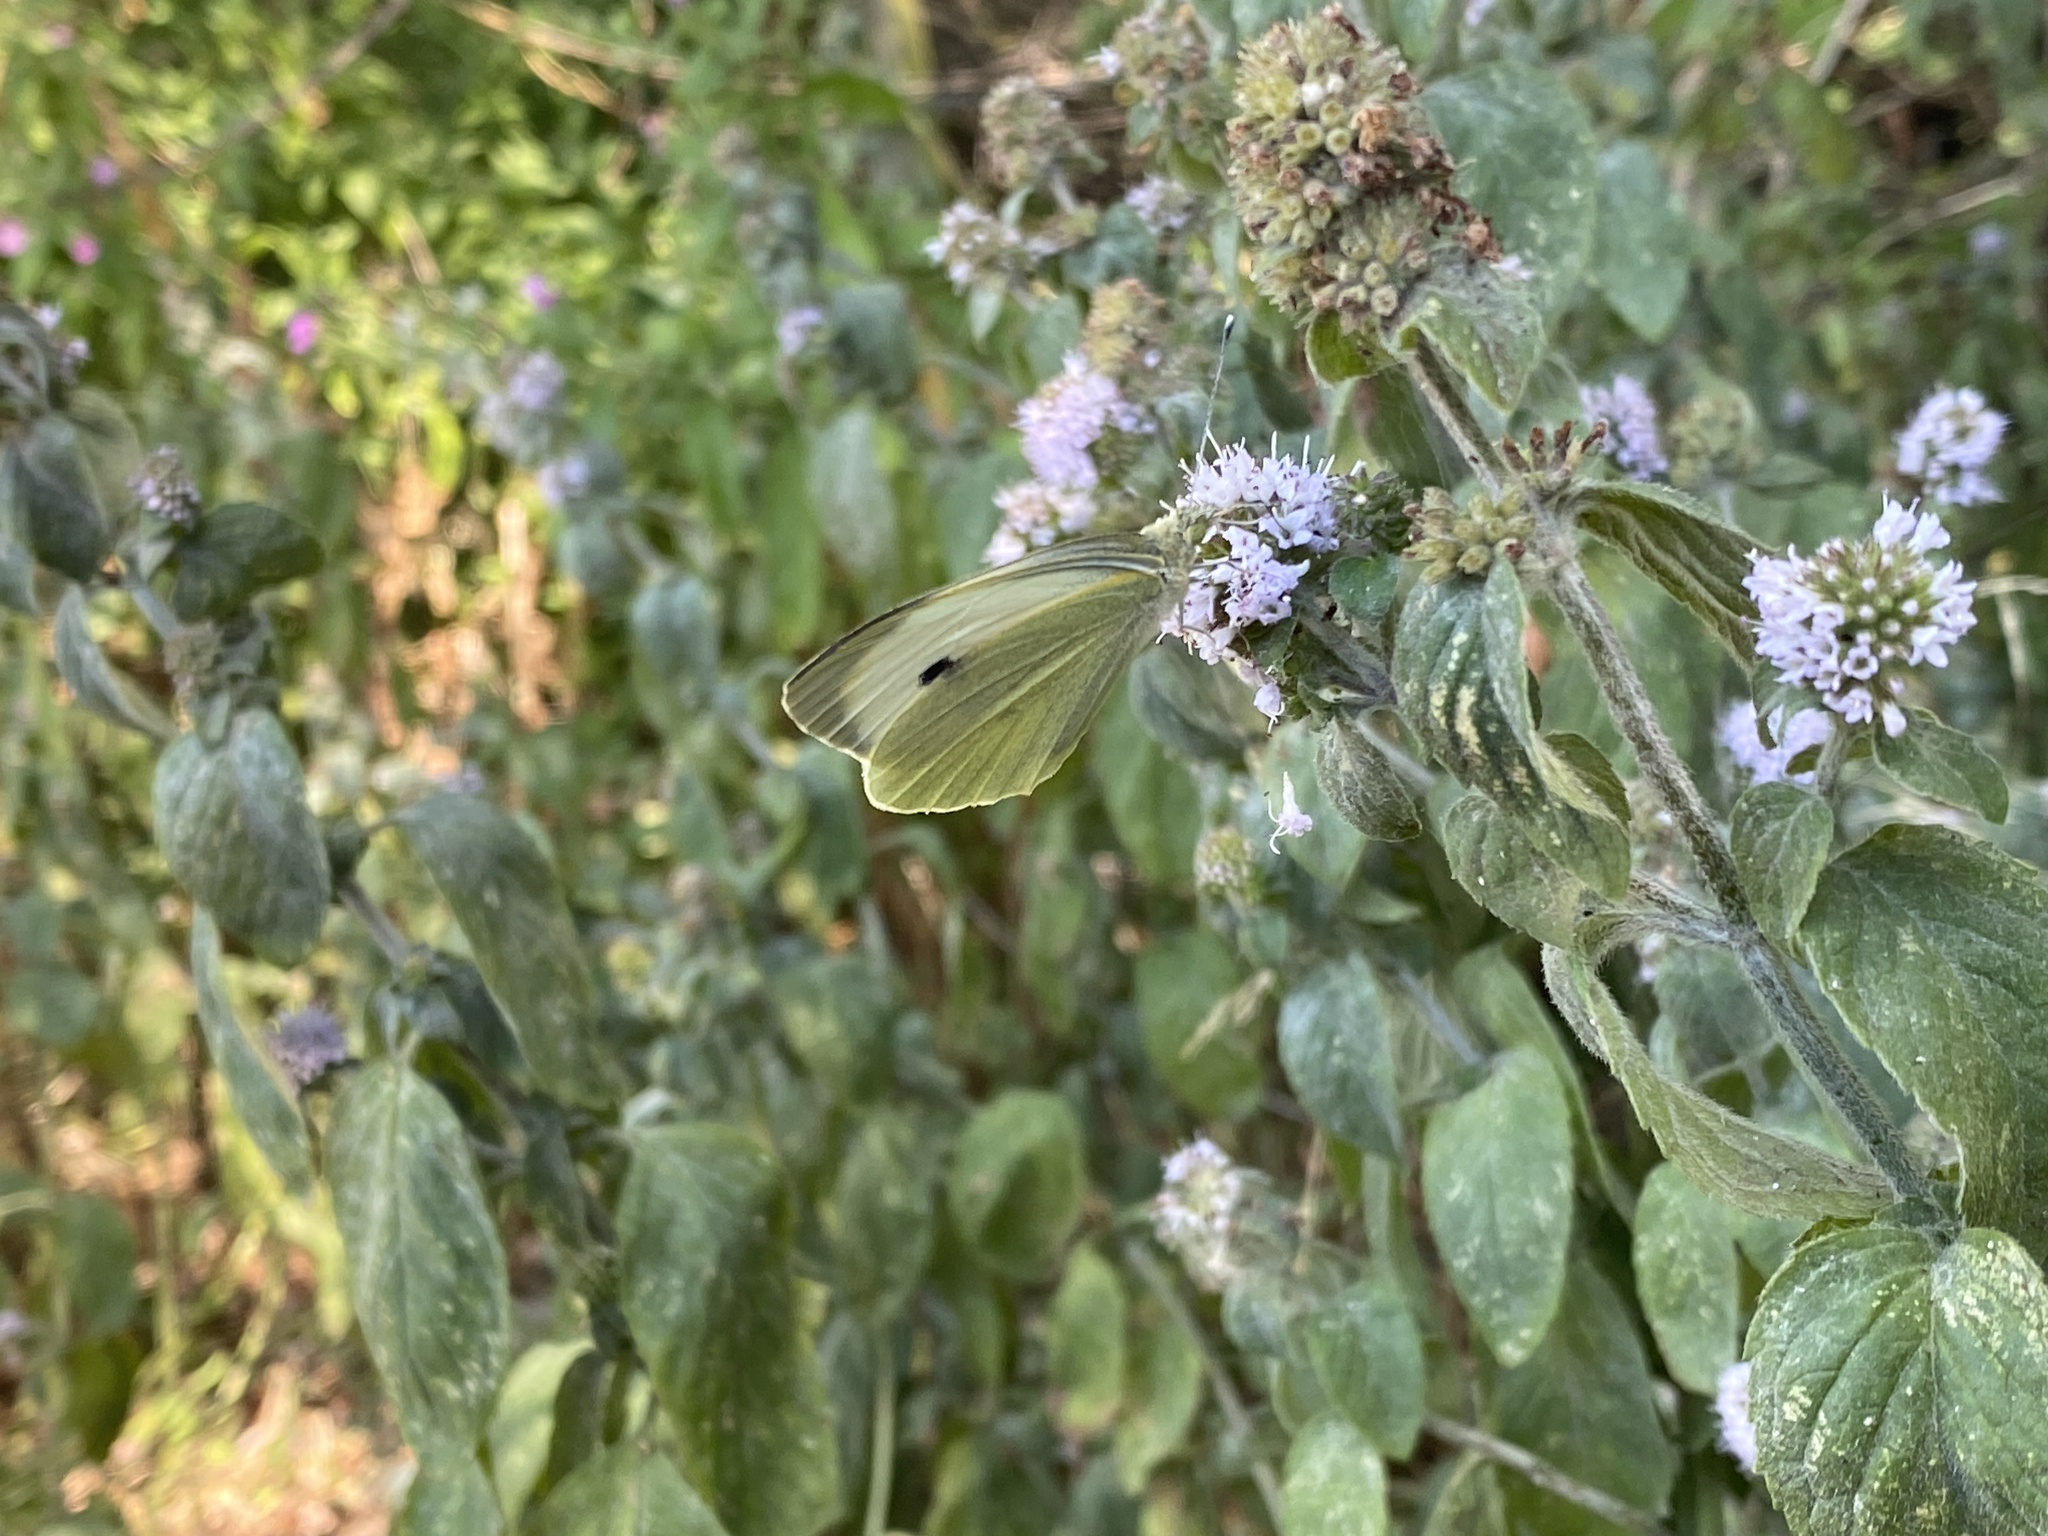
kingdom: Animalia
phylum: Arthropoda
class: Insecta
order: Lepidoptera
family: Pieridae
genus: Pieris
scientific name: Pieris brassicae
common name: Large white
